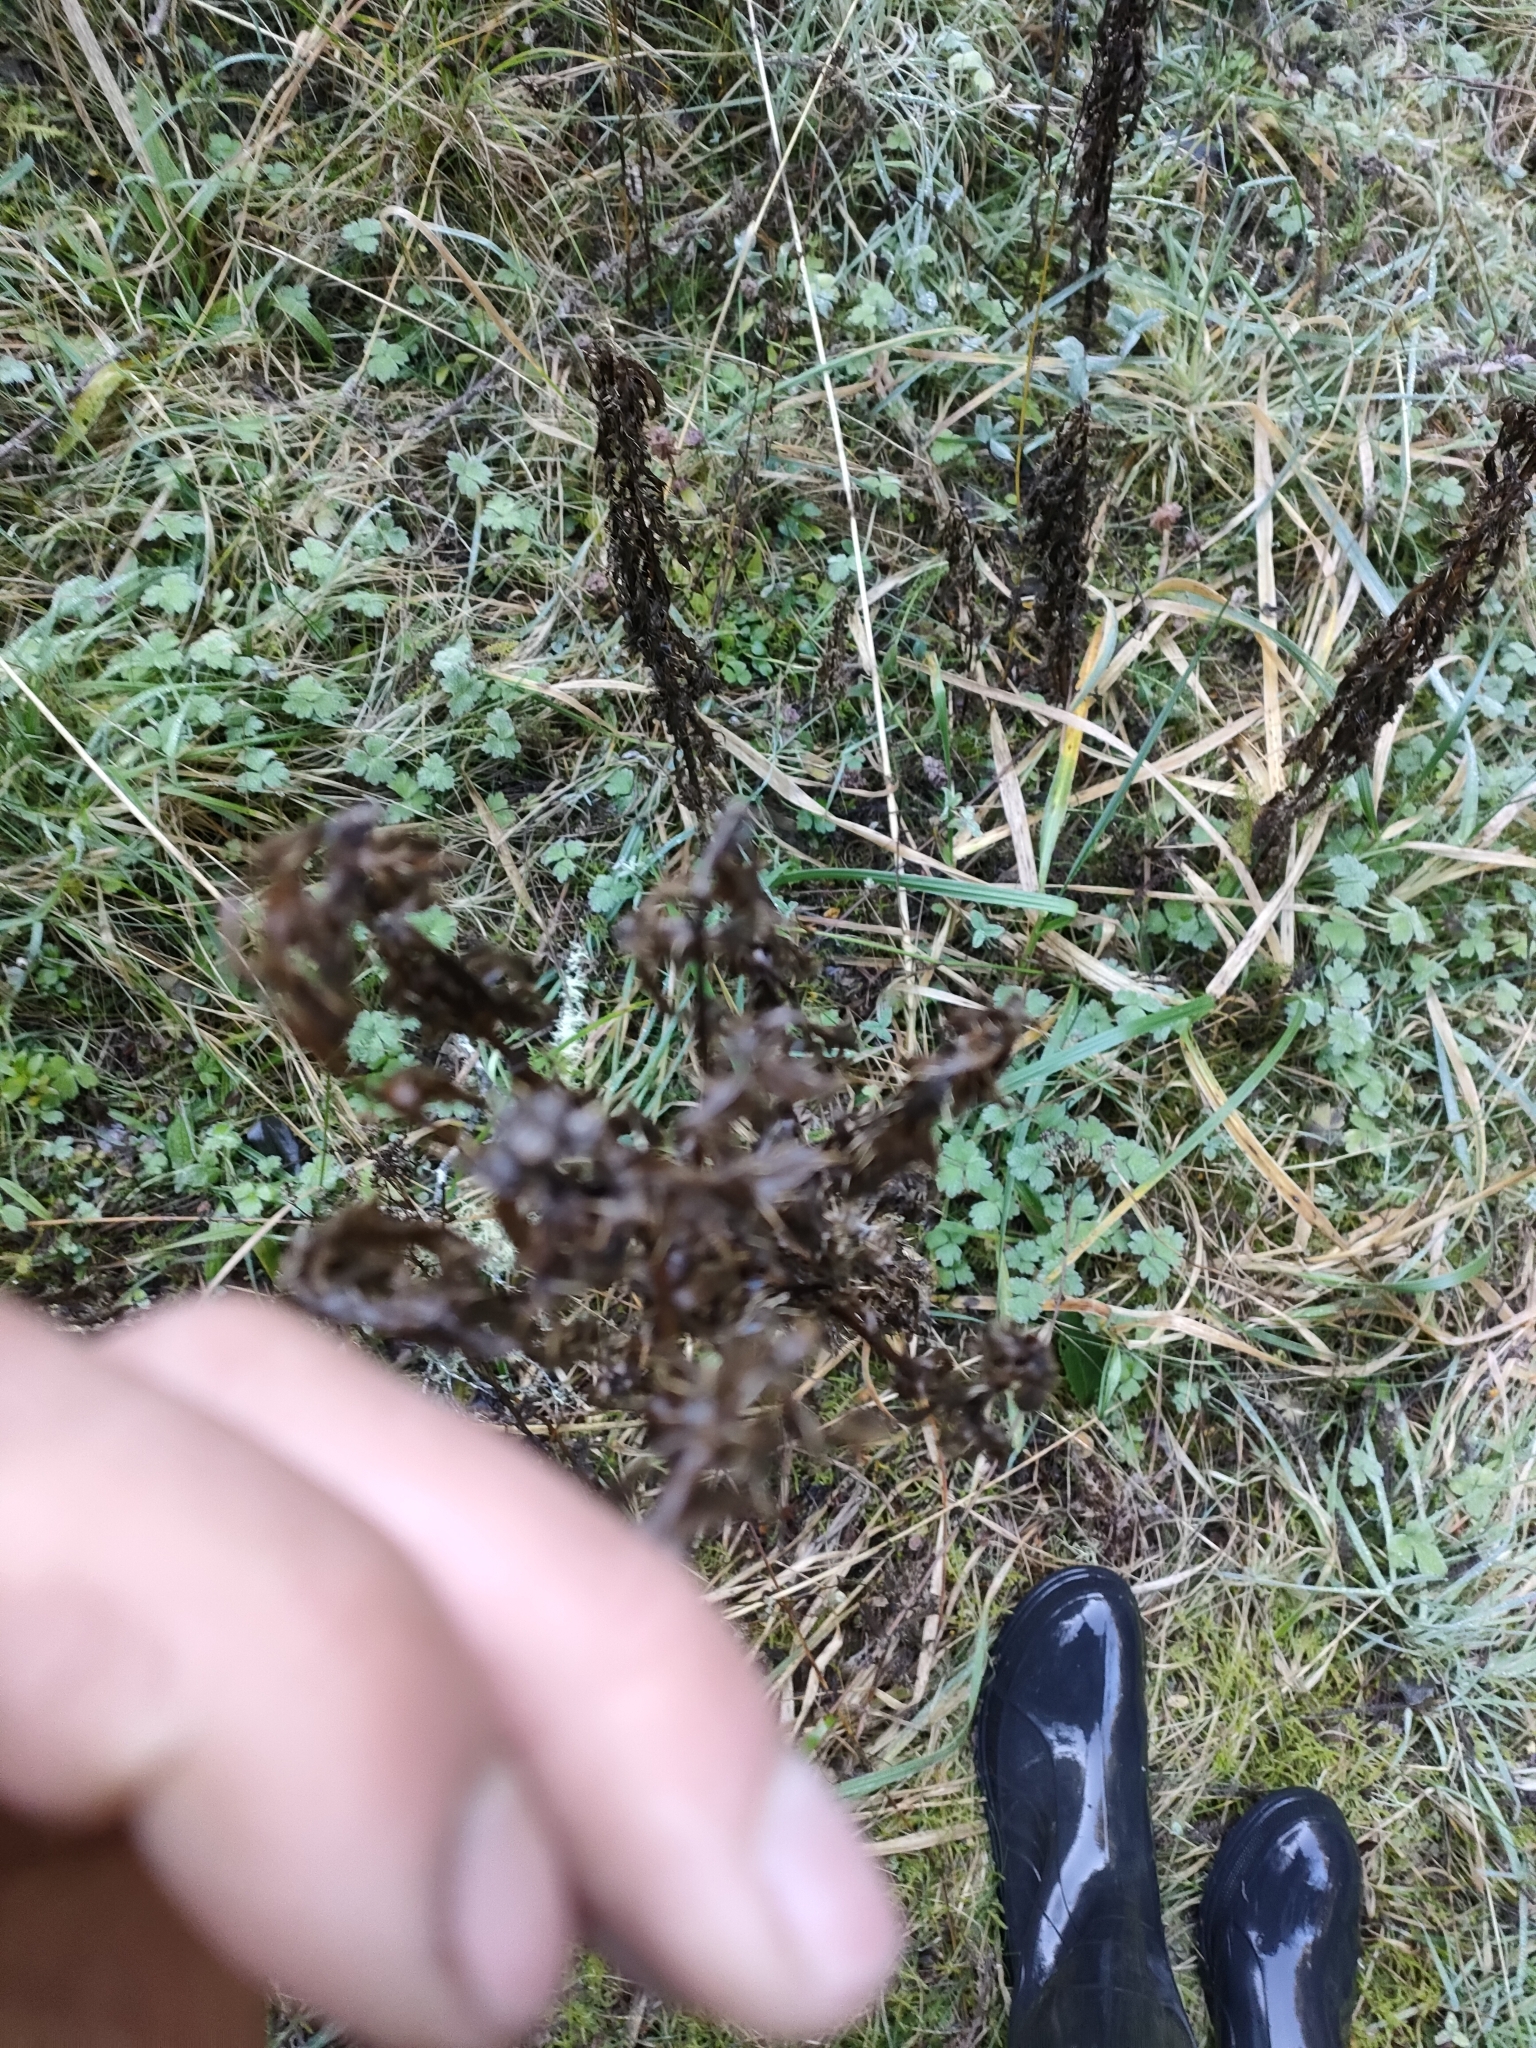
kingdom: Plantae
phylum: Tracheophyta
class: Magnoliopsida
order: Asterales
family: Asteraceae
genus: Cirsium
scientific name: Cirsium arvense
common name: Creeping thistle
